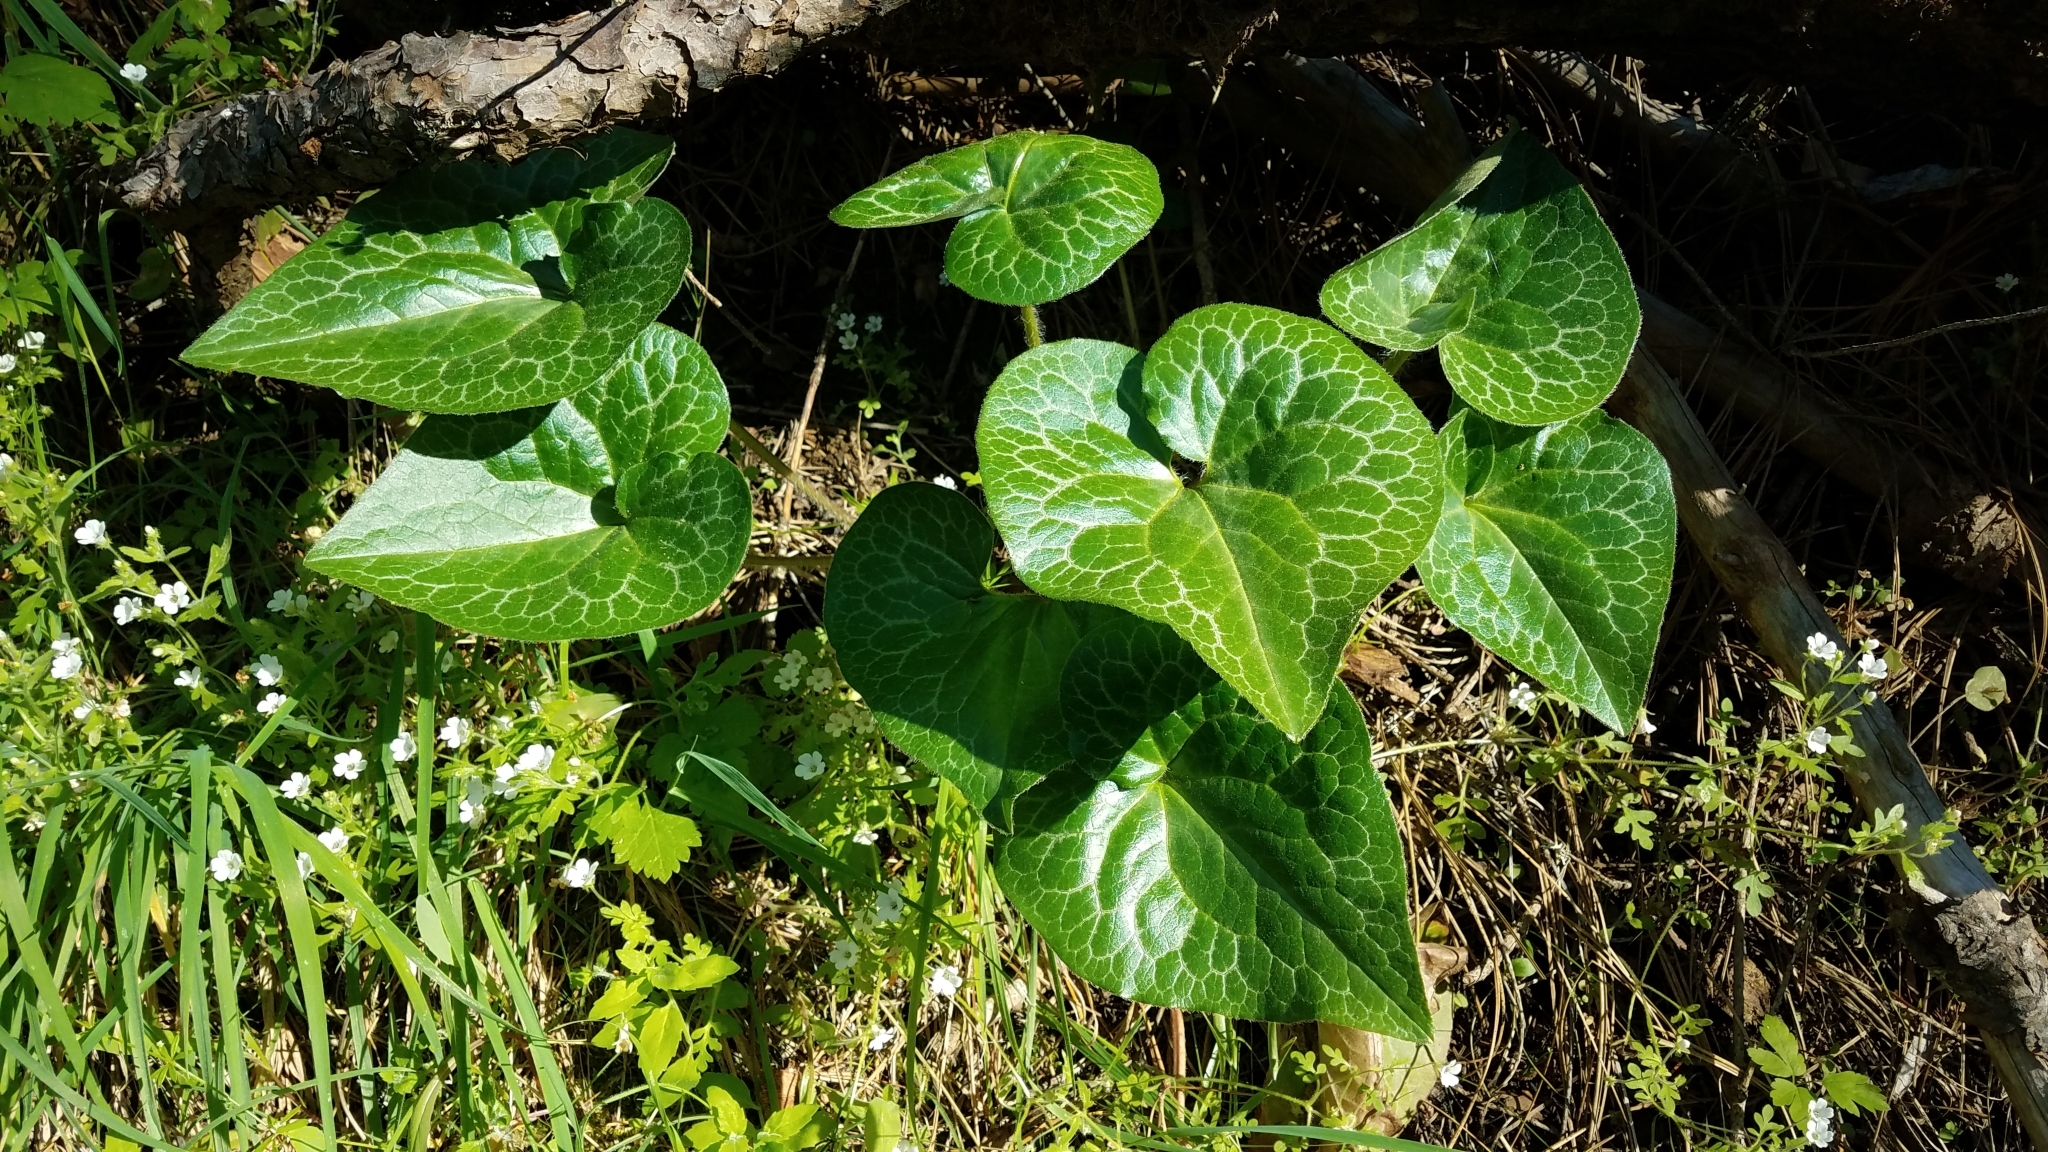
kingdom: Plantae
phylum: Tracheophyta
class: Magnoliopsida
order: Piperales
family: Aristolochiaceae
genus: Asarum
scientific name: Asarum hartwegii
